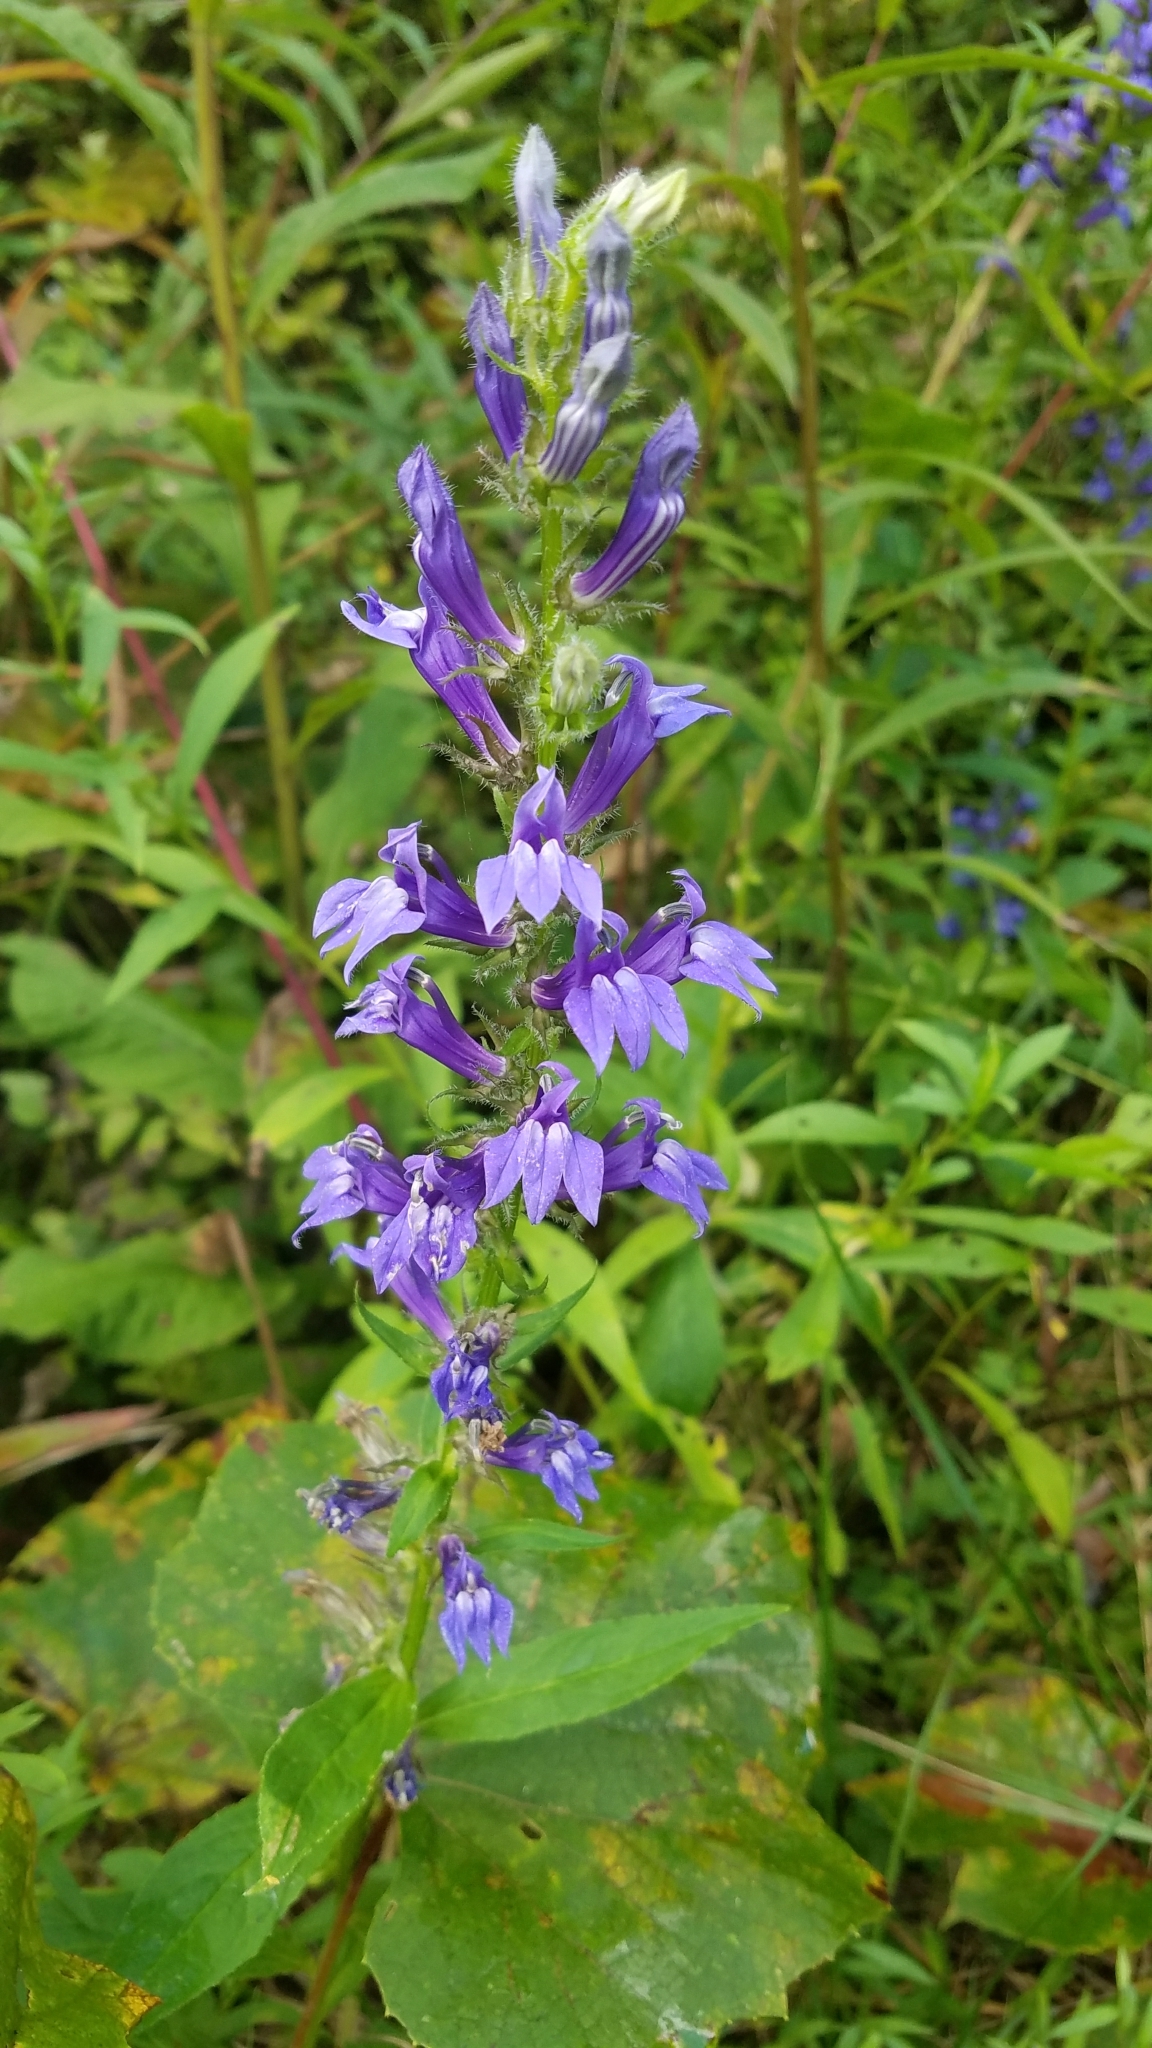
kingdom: Plantae
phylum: Tracheophyta
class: Magnoliopsida
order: Asterales
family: Campanulaceae
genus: Lobelia
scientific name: Lobelia siphilitica
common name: Great lobelia
